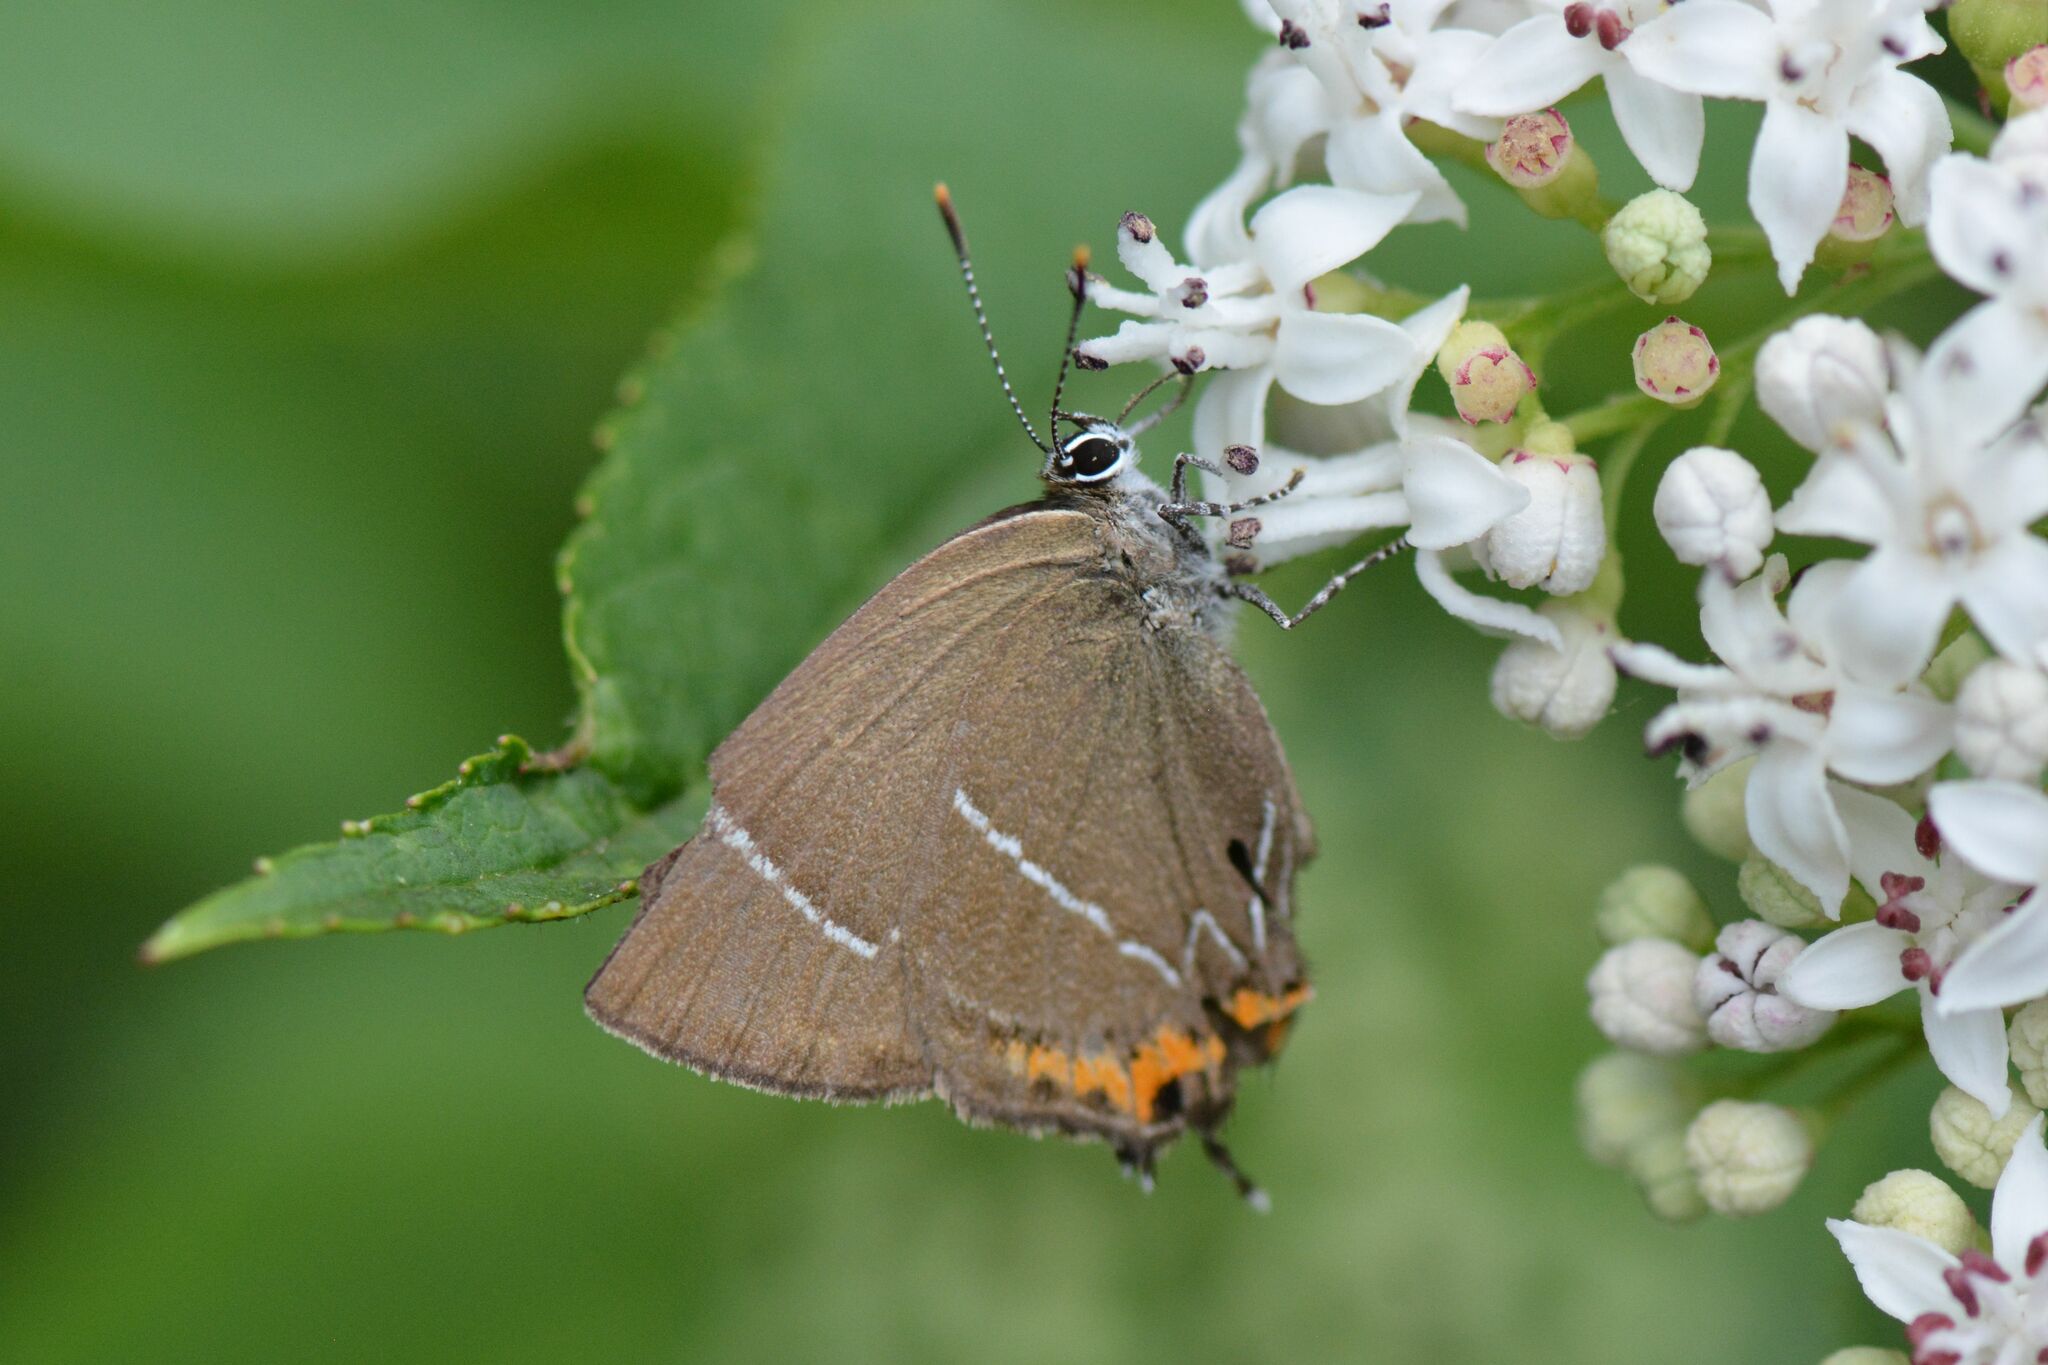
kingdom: Animalia
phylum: Arthropoda
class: Insecta
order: Lepidoptera
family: Lycaenidae
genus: Satyrium
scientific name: Satyrium w-album
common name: White-letter hairstreak
